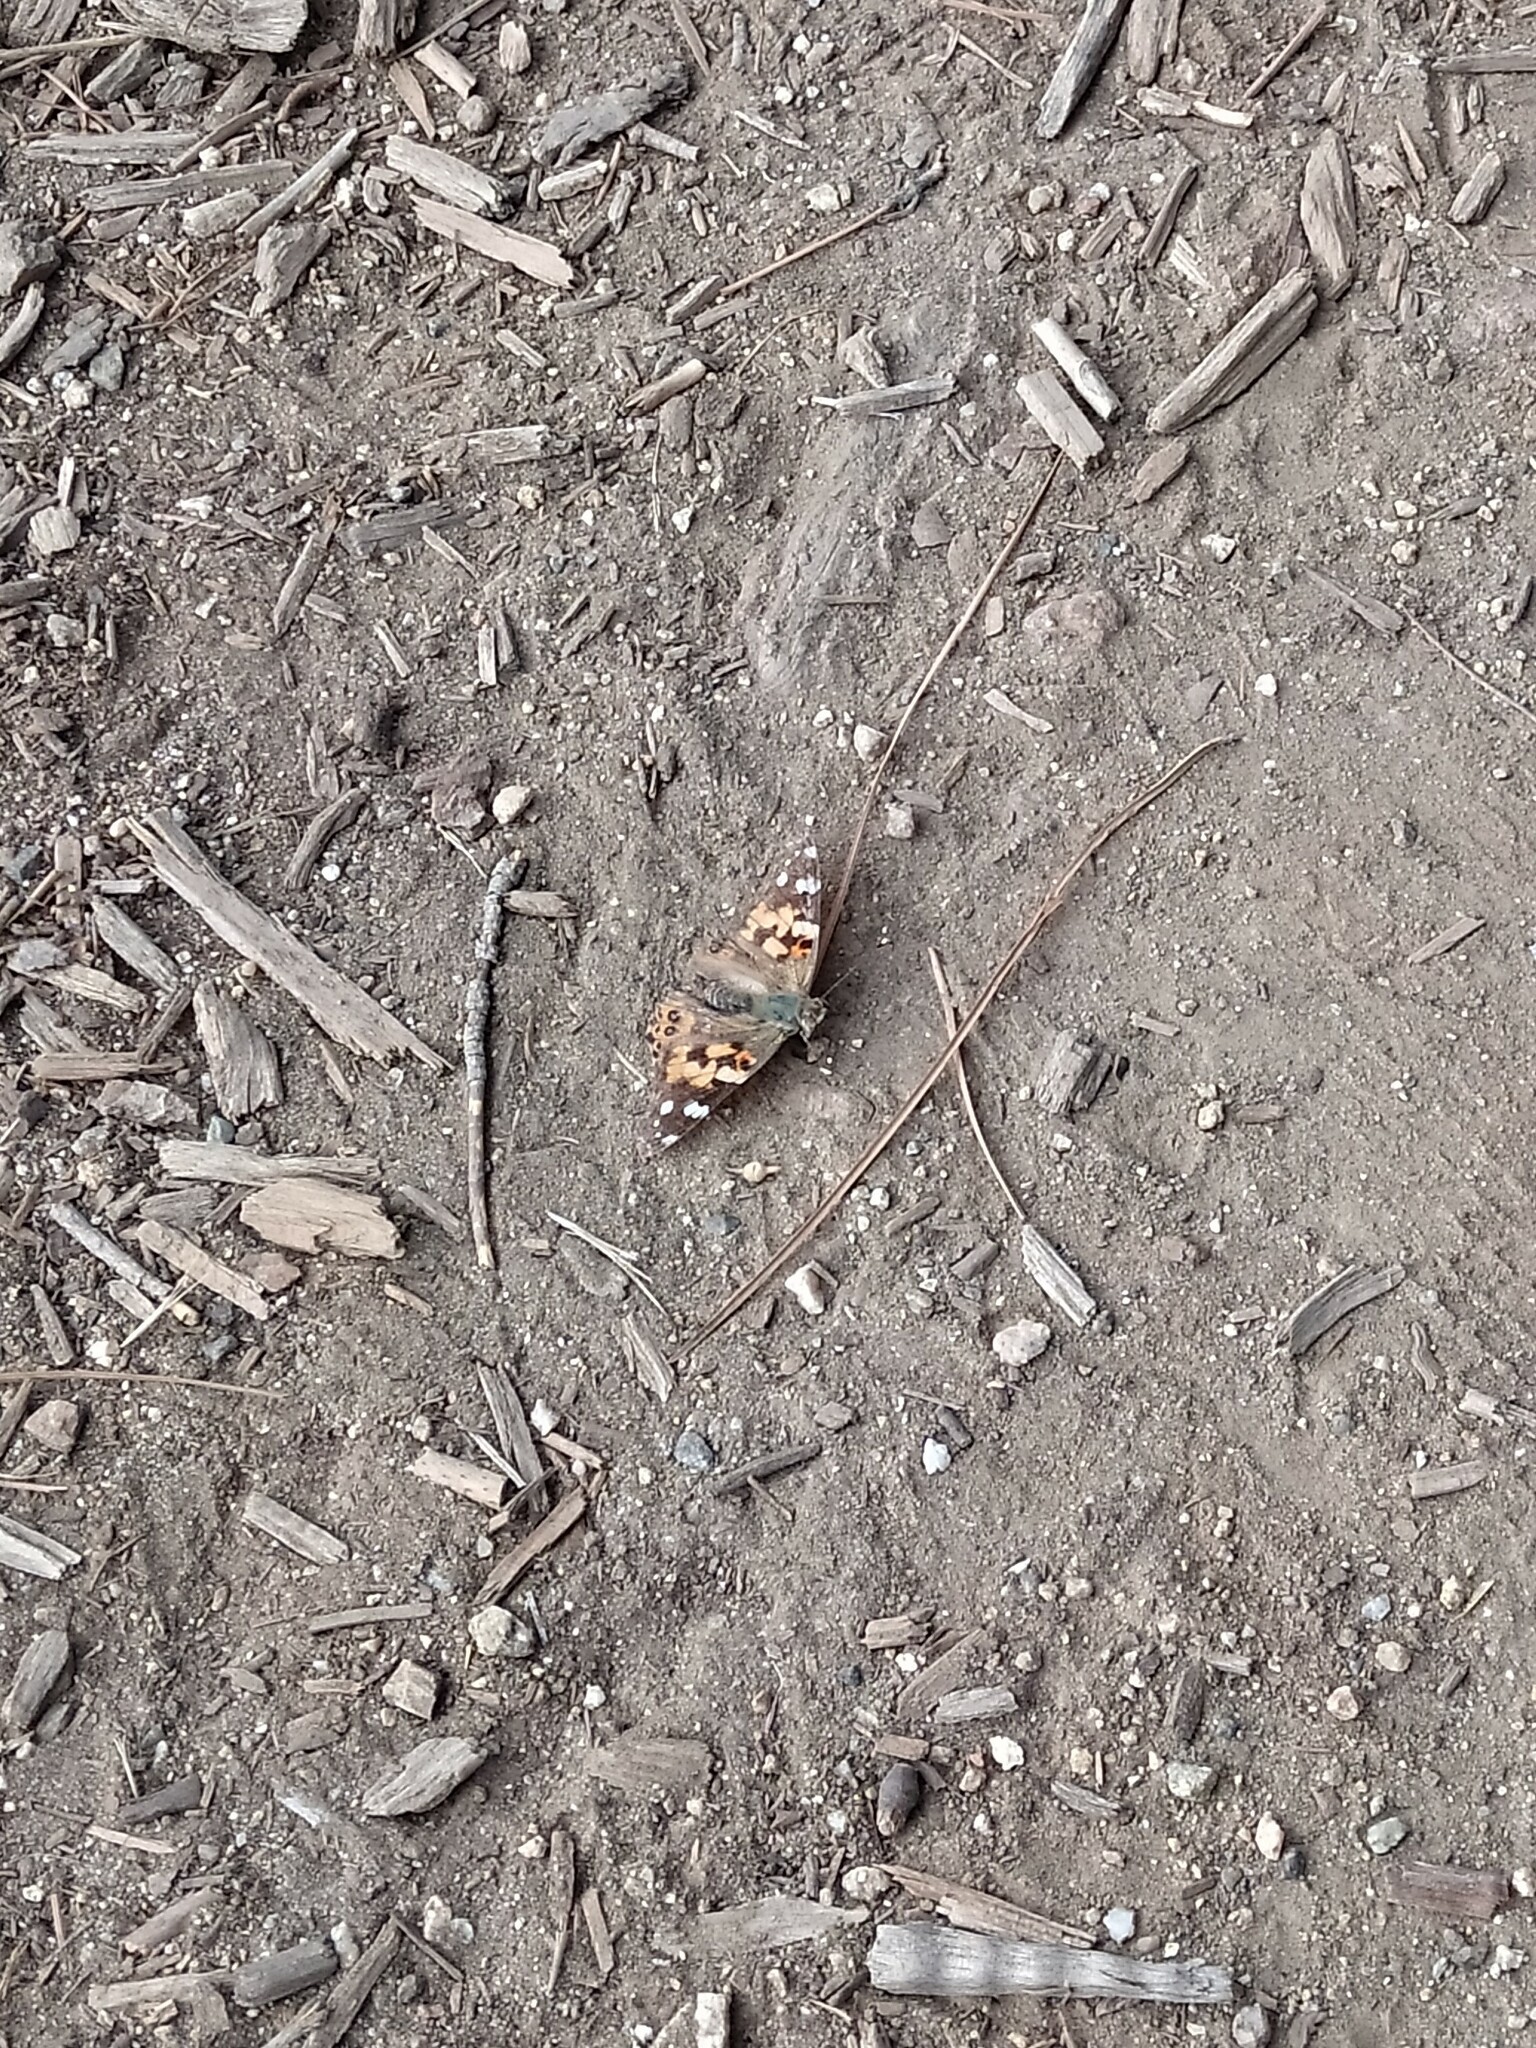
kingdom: Animalia
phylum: Arthropoda
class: Insecta
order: Lepidoptera
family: Nymphalidae
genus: Vanessa
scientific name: Vanessa cardui
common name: Painted lady
